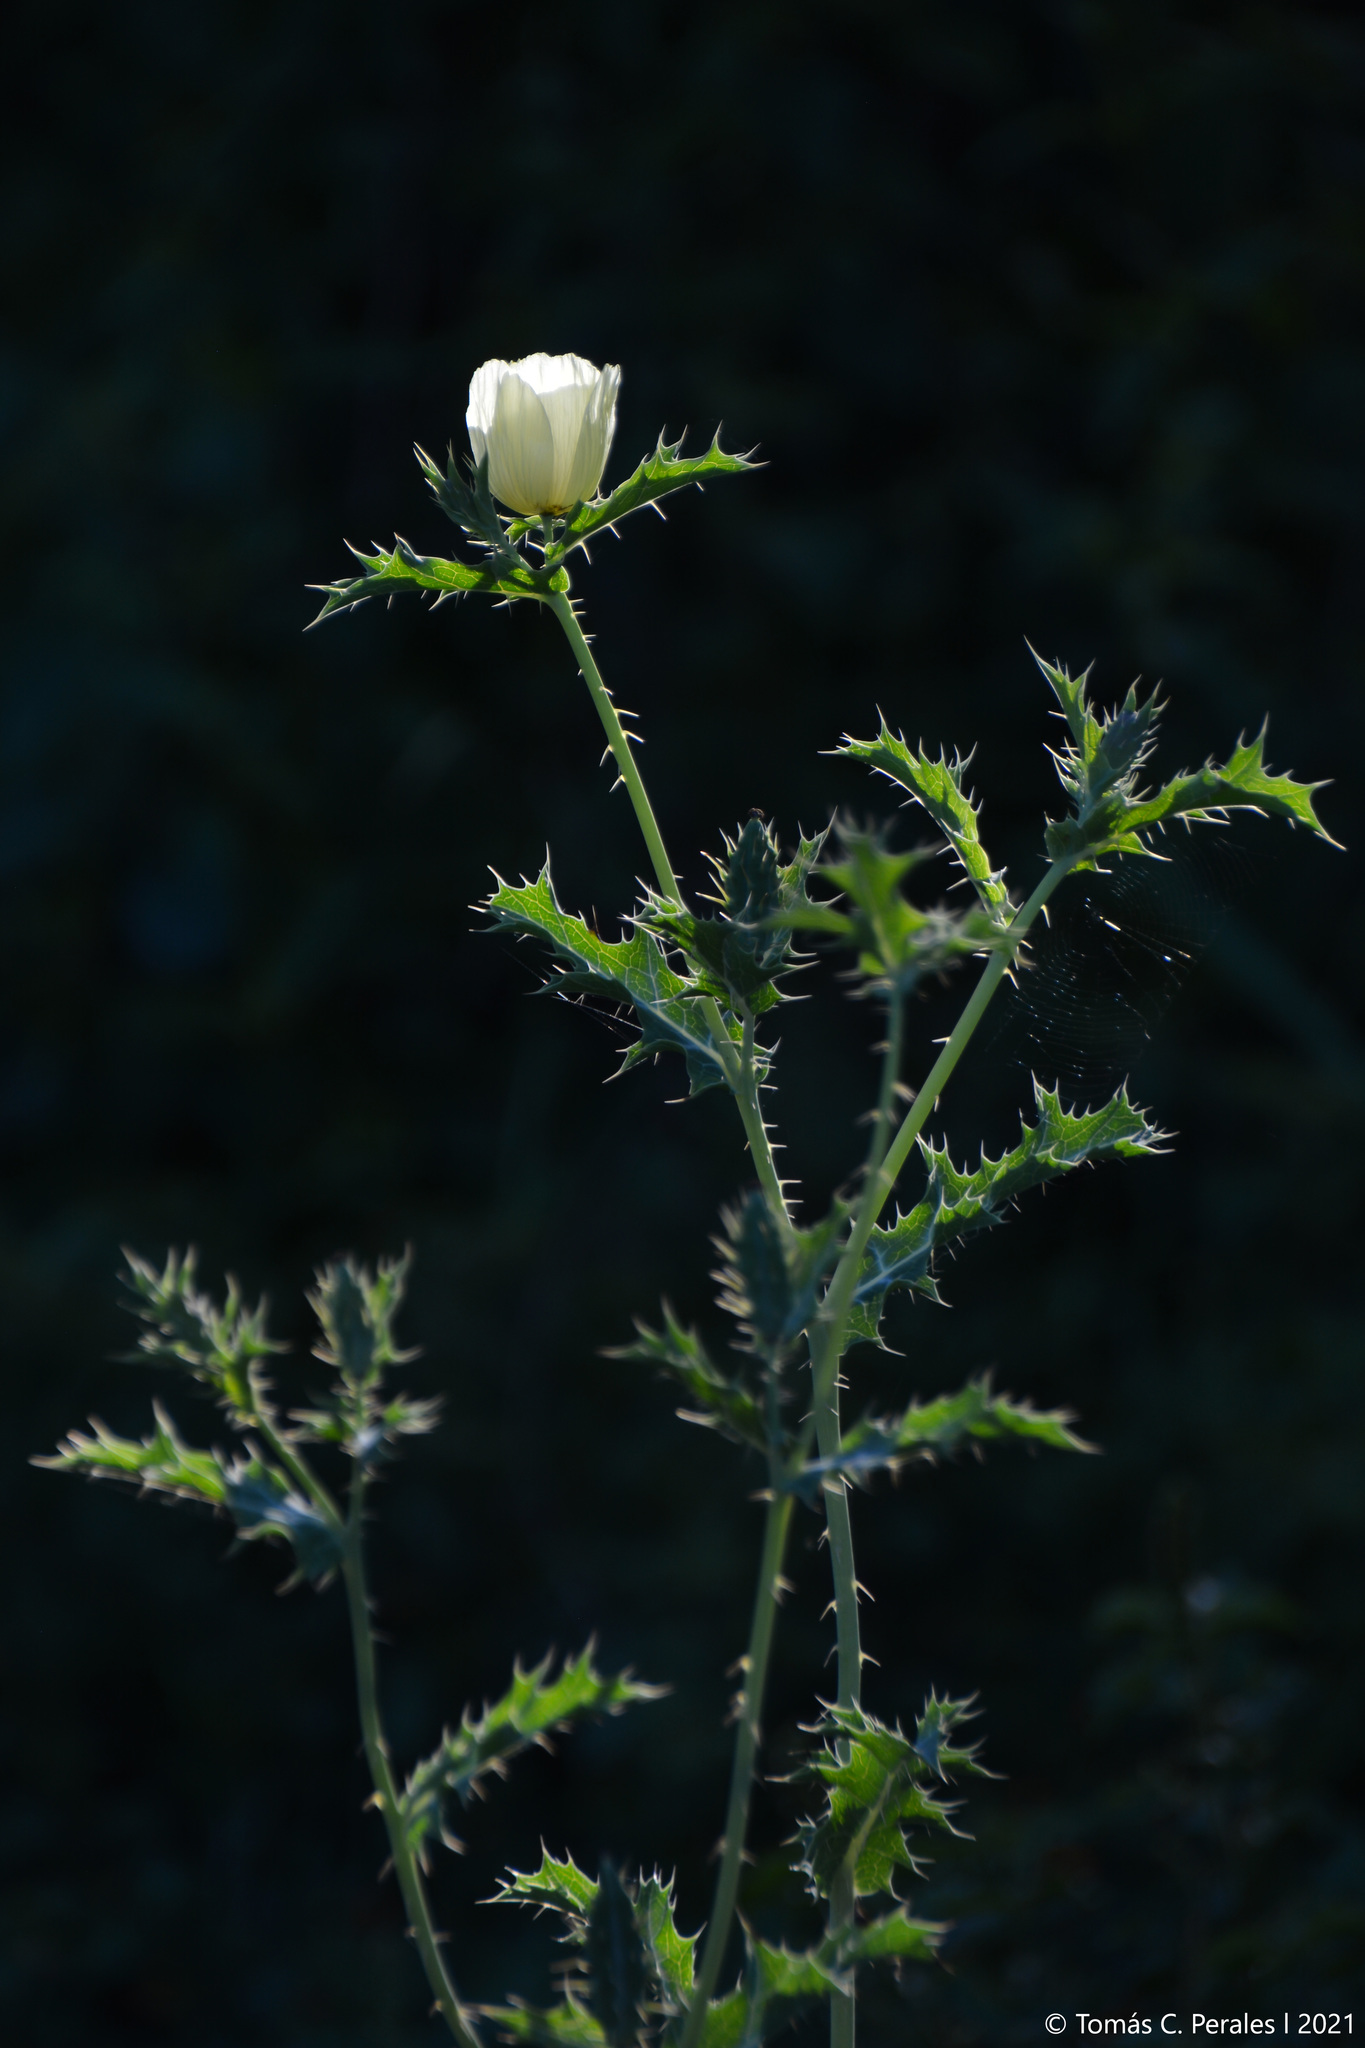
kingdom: Plantae
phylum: Tracheophyta
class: Magnoliopsida
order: Ranunculales
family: Papaveraceae
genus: Argemone
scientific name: Argemone subfusiformis
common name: American-poppy
